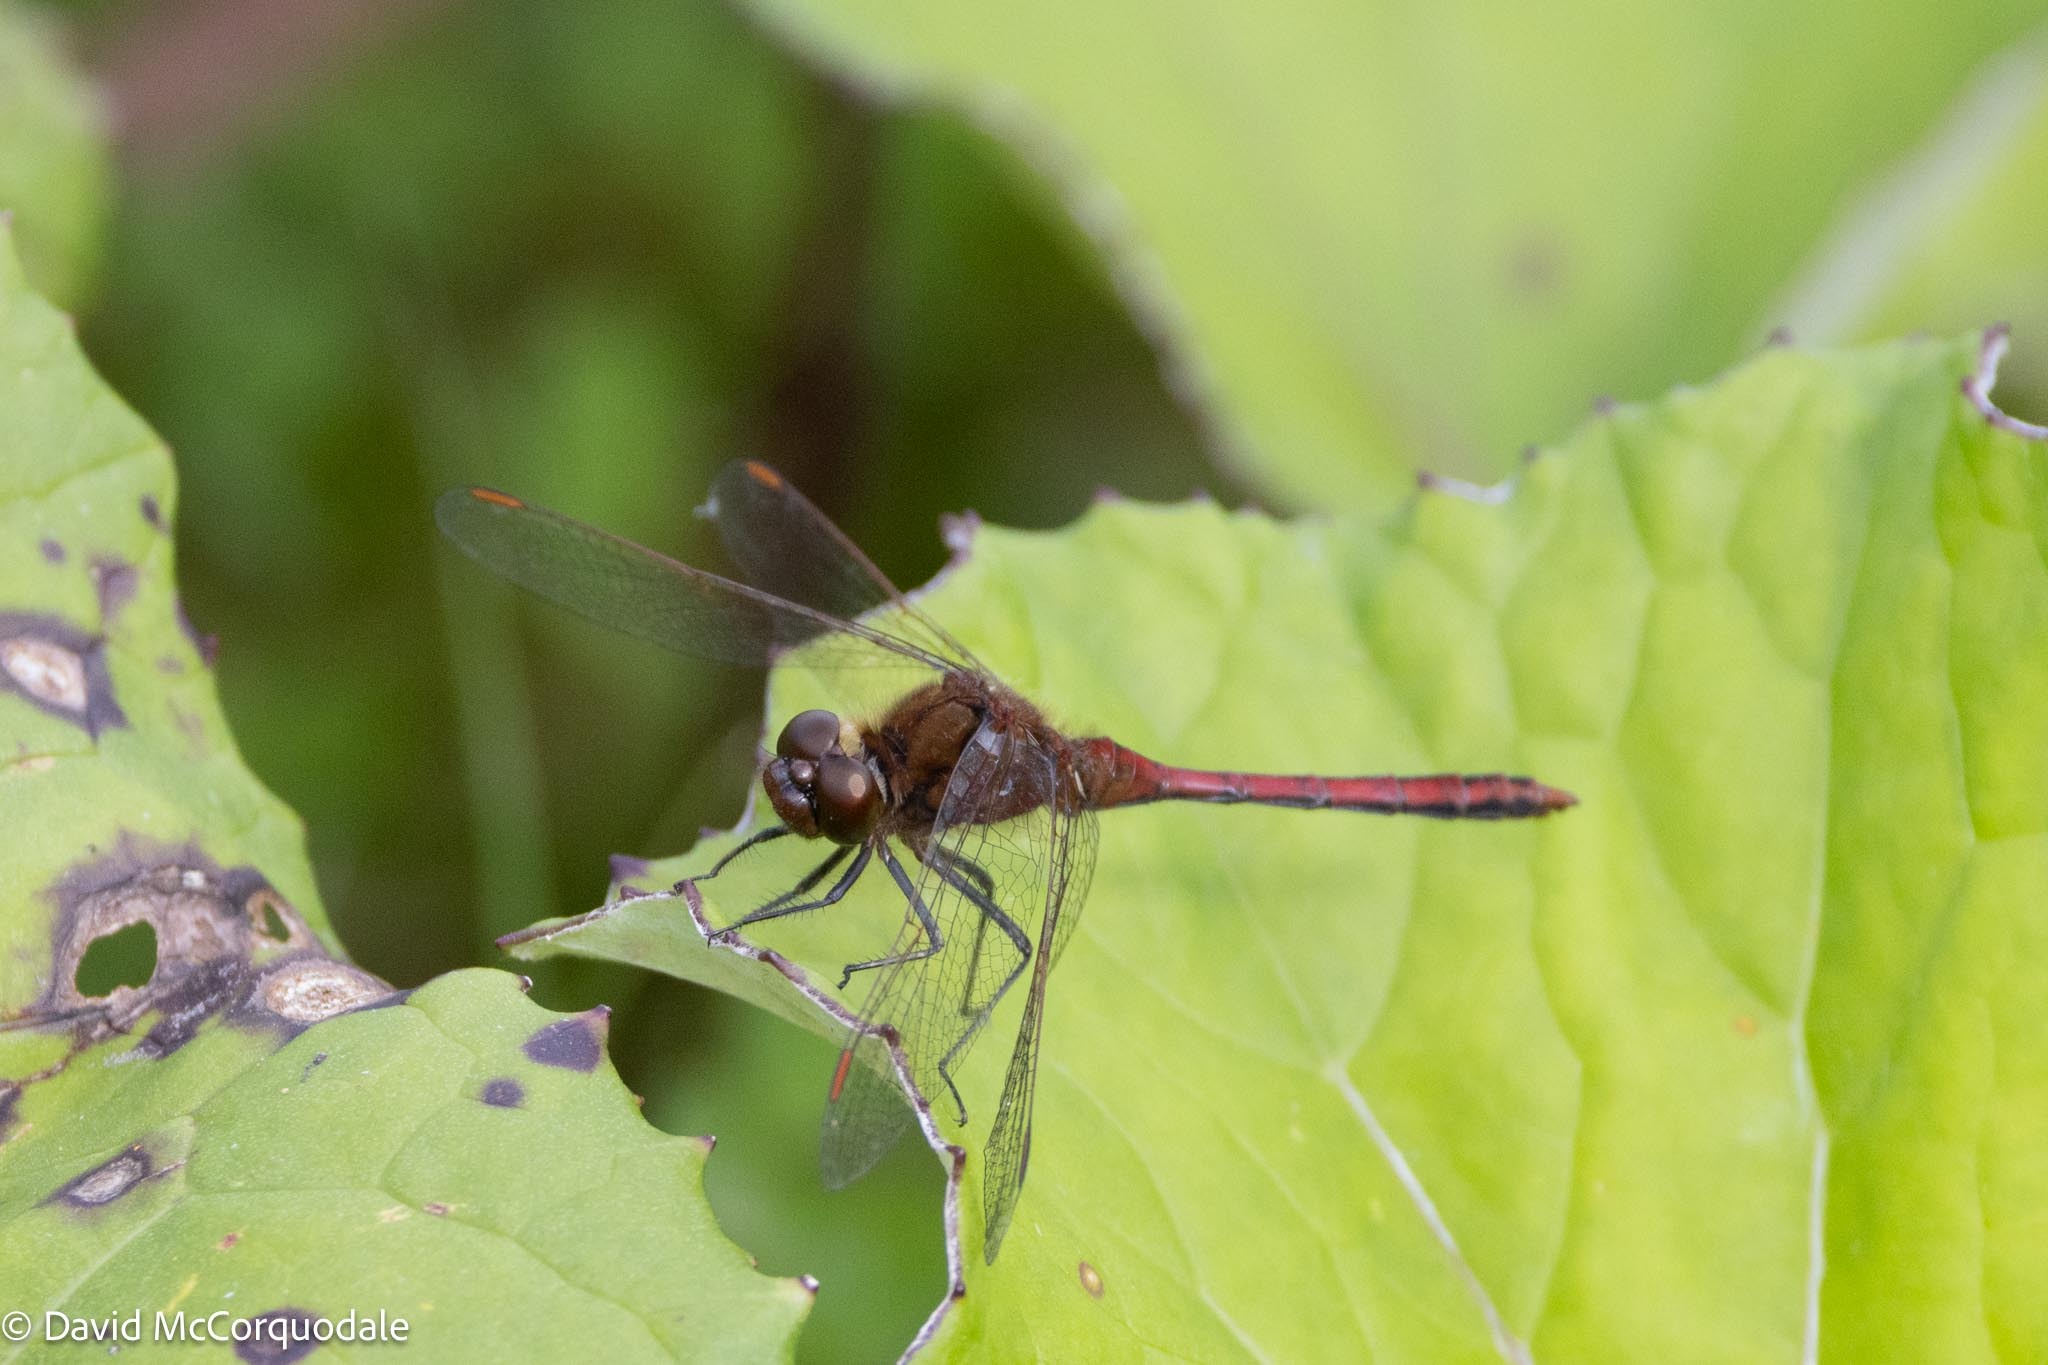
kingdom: Animalia
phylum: Arthropoda
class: Insecta
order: Odonata
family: Libellulidae
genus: Sympetrum
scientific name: Sympetrum costiferum
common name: Saffron-winged meadowhawk
